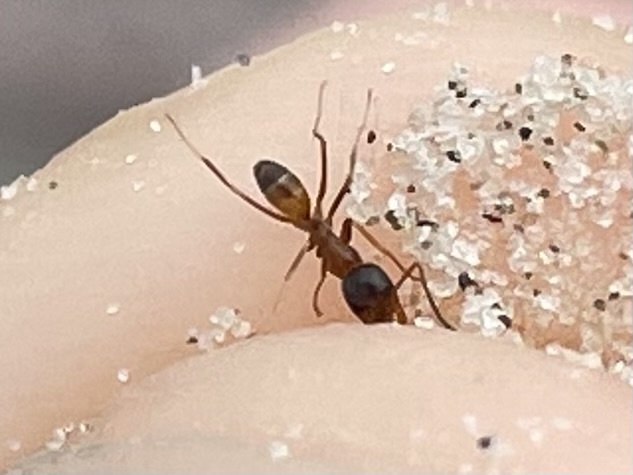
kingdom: Animalia
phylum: Arthropoda
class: Insecta
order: Hymenoptera
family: Formicidae
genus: Dorymyrmex
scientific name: Dorymyrmex flavus
